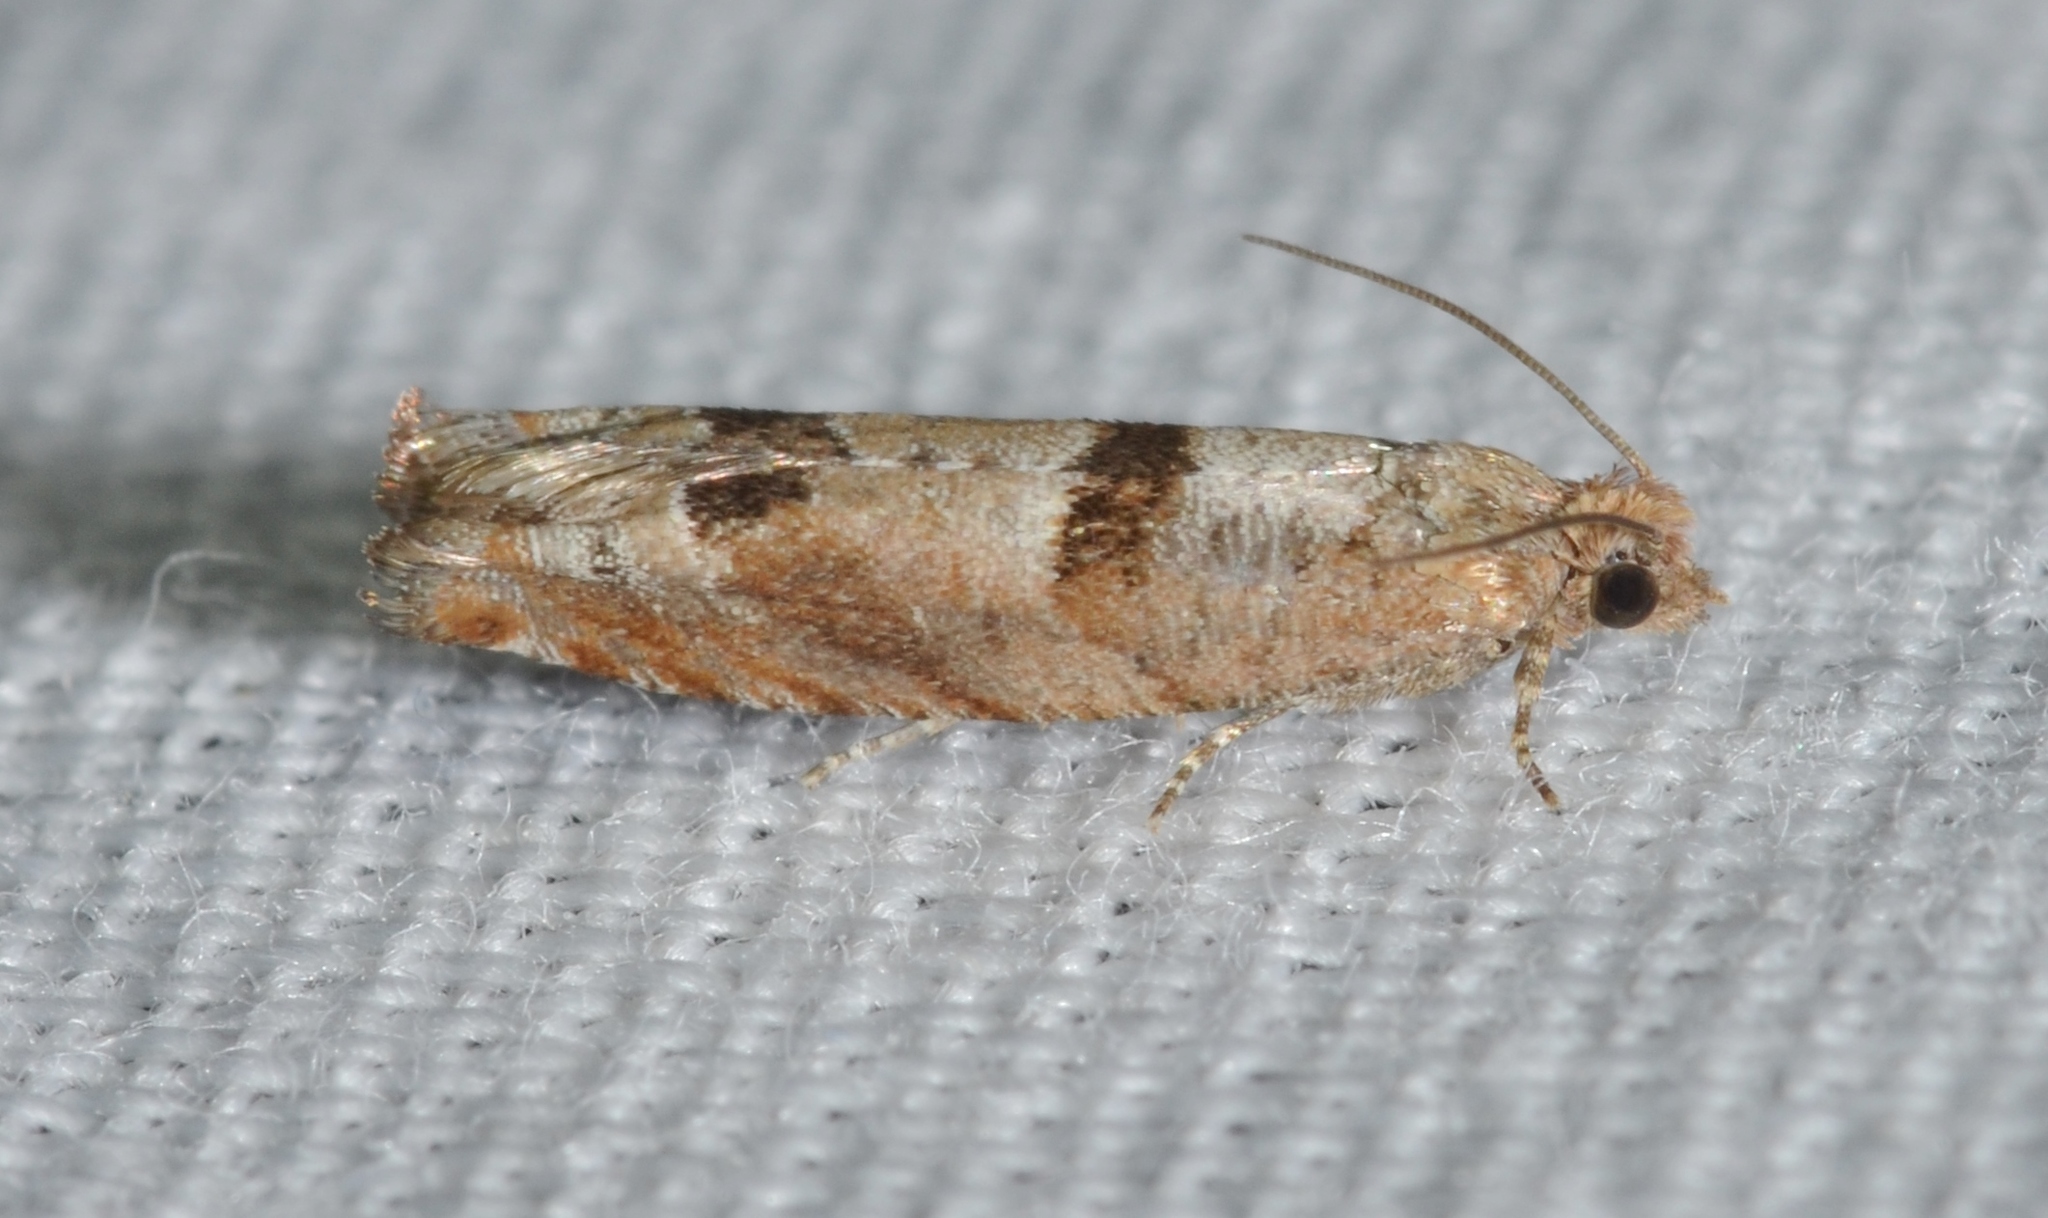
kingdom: Animalia
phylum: Arthropoda
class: Insecta
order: Lepidoptera
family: Tortricidae
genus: Pseudexentera
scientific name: Pseudexentera sepia
